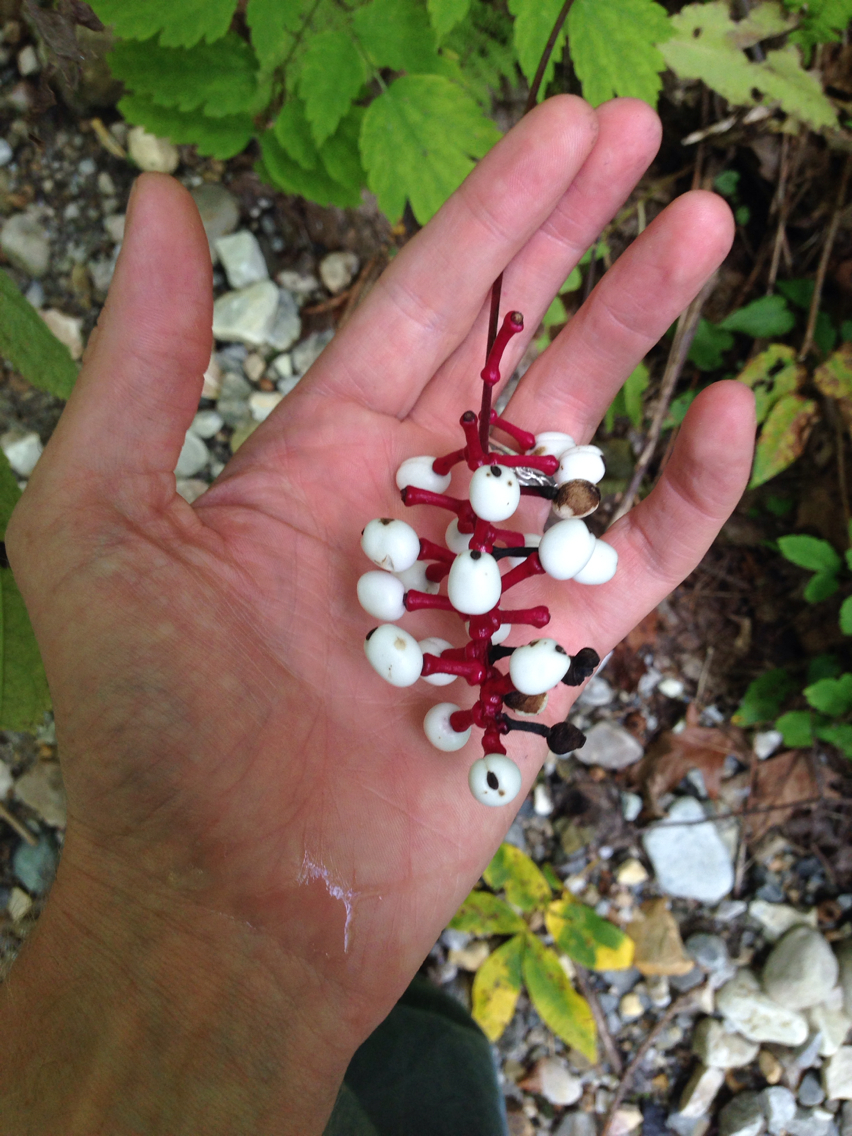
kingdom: Plantae
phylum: Tracheophyta
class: Magnoliopsida
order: Ranunculales
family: Ranunculaceae
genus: Actaea
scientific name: Actaea pachypoda
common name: Doll's-eyes
